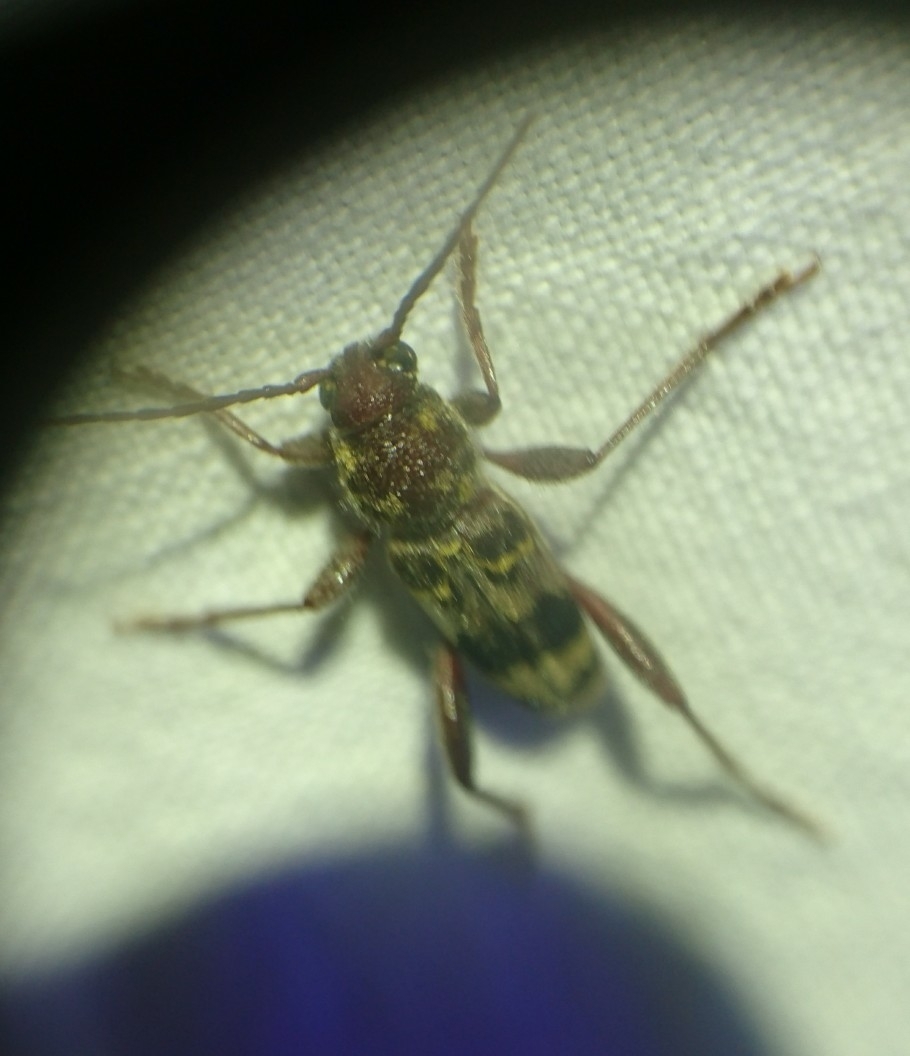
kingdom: Animalia
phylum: Arthropoda
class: Insecta
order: Coleoptera
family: Cerambycidae
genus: Xylotrechus
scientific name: Xylotrechus colonus
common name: Long-horned beetle
